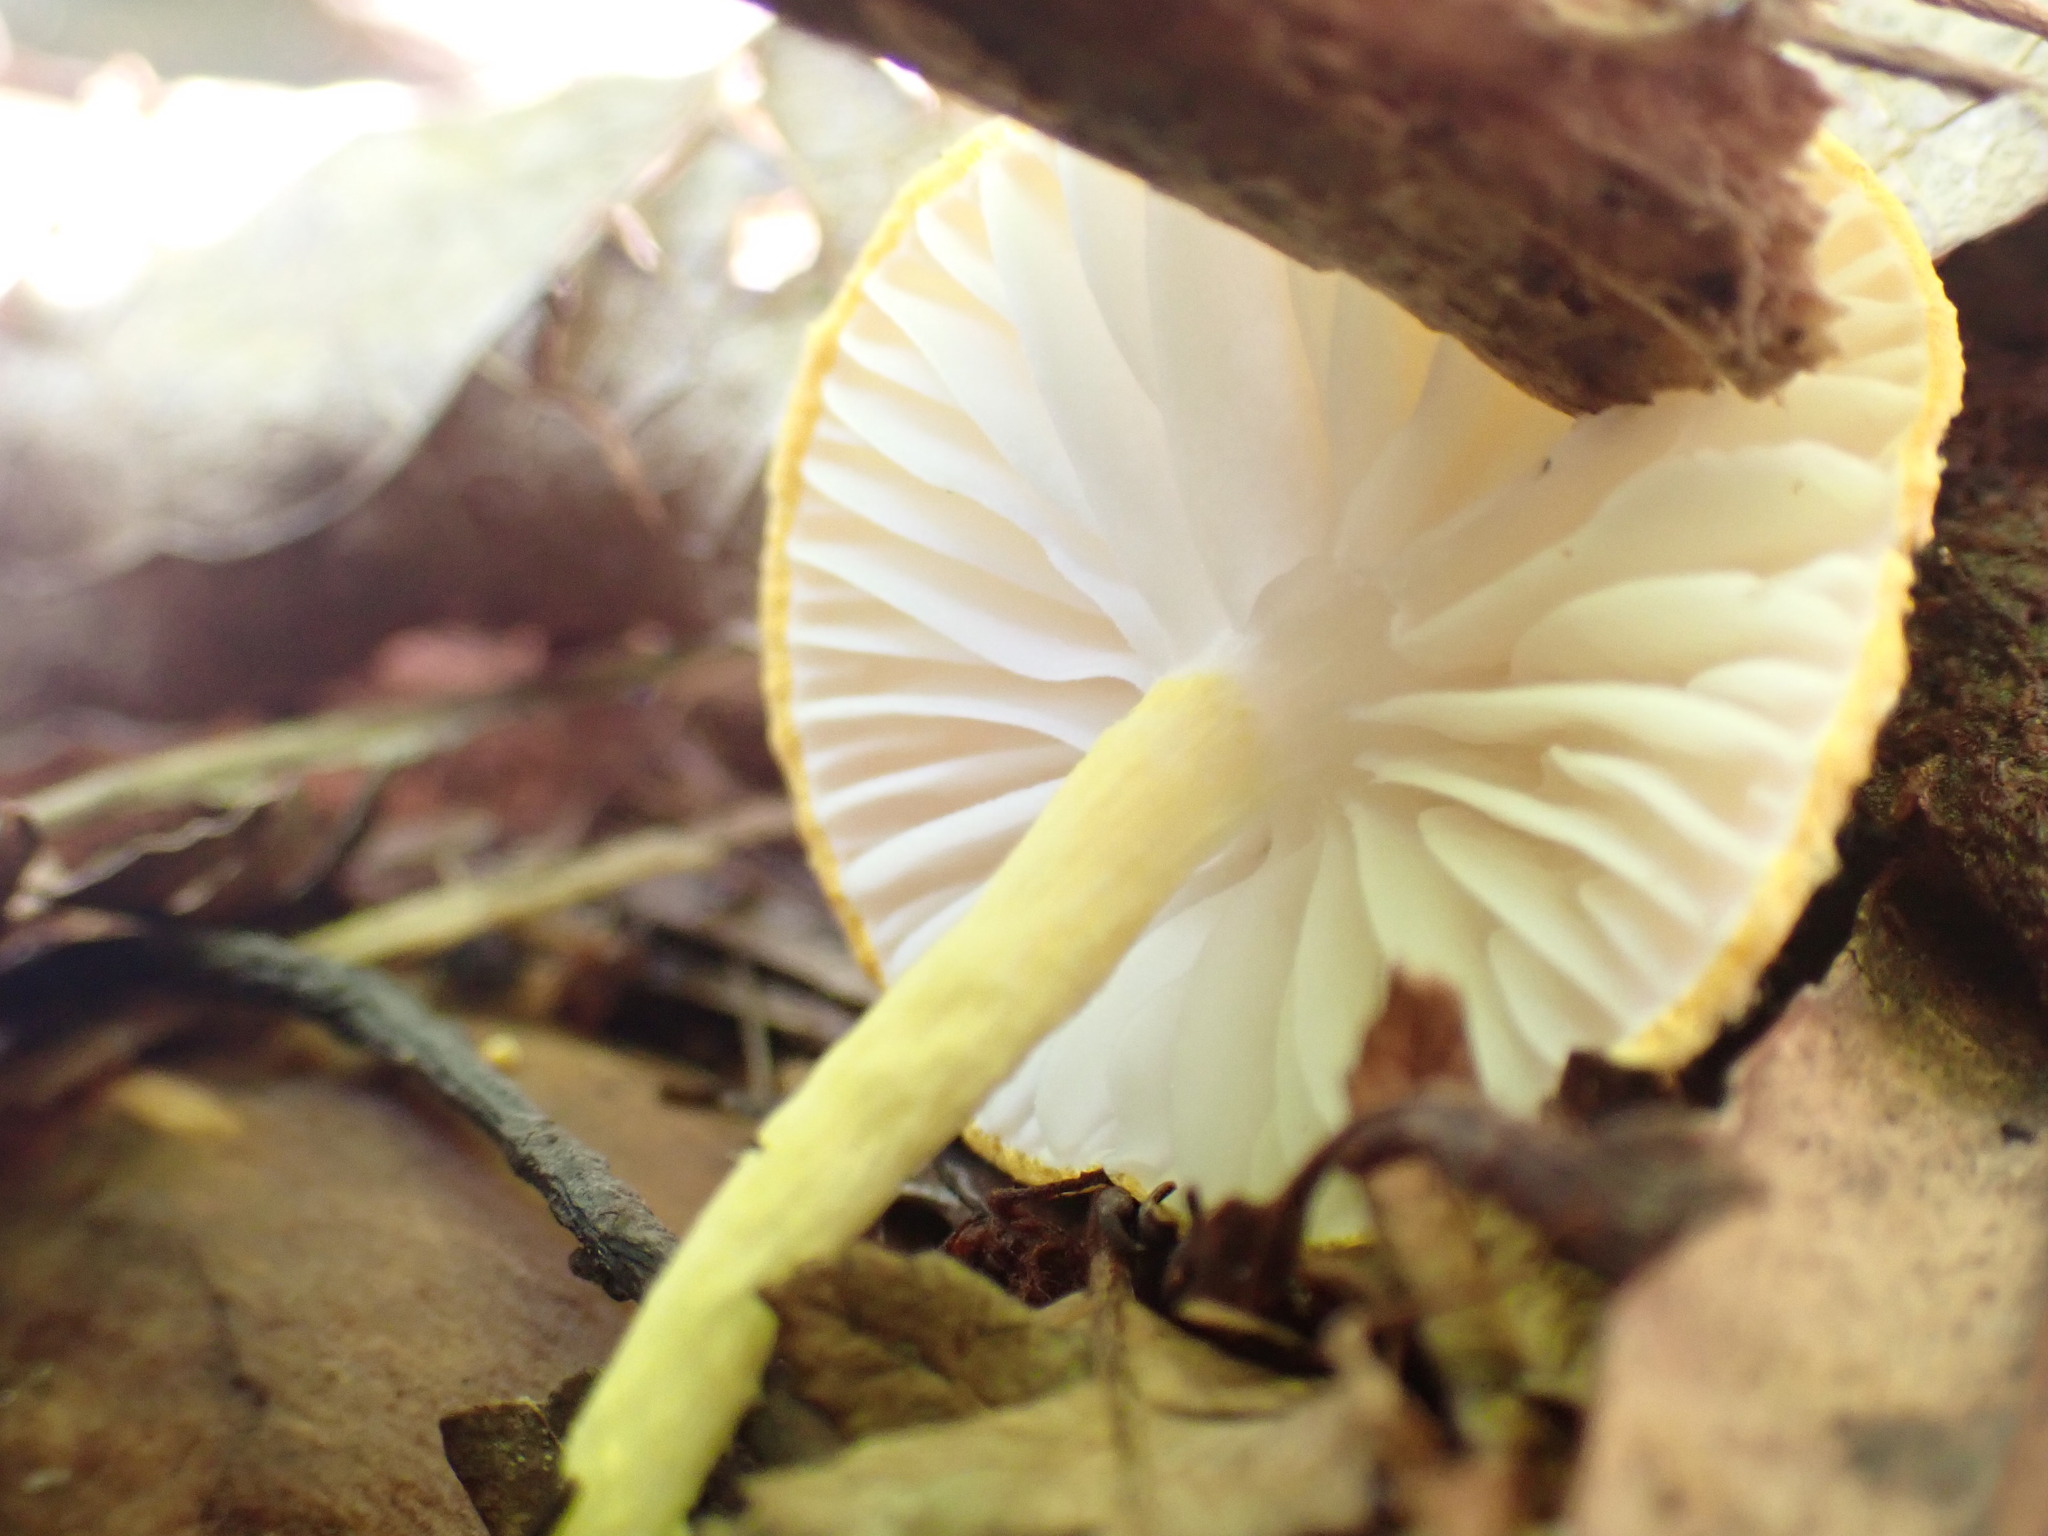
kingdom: Fungi
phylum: Basidiomycota
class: Agaricomycetes
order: Agaricales
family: Physalacriaceae
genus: Cyptotrama
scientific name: Cyptotrama asprata
